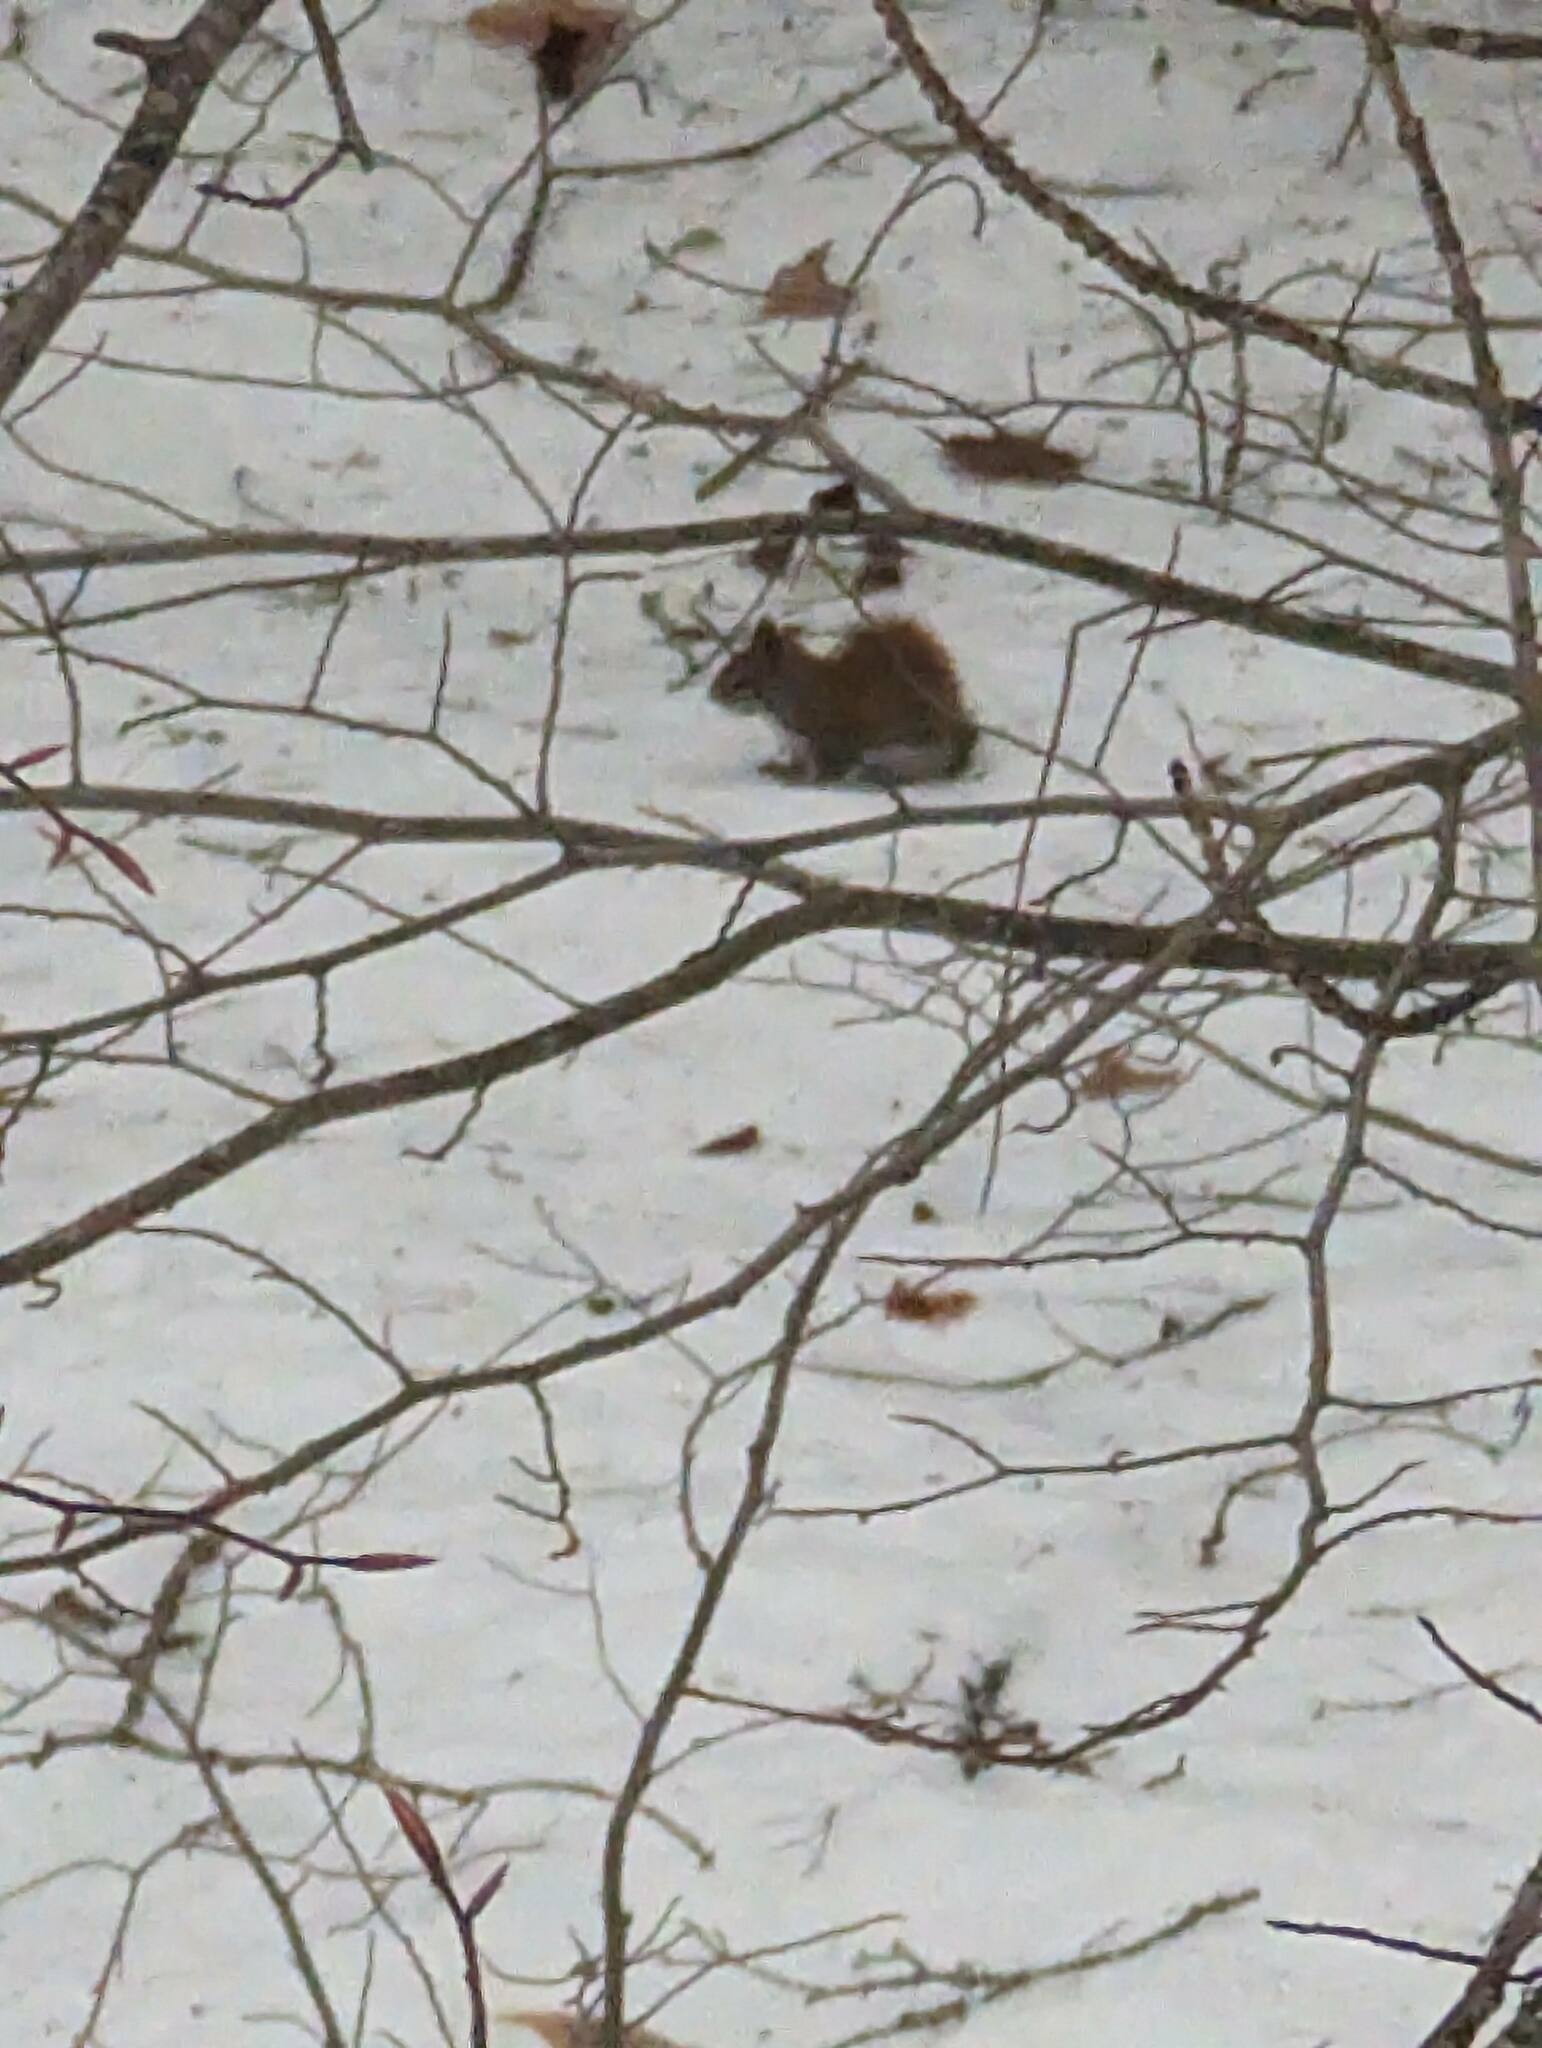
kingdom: Animalia
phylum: Chordata
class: Mammalia
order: Rodentia
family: Sciuridae
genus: Tamiasciurus
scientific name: Tamiasciurus hudsonicus
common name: Red squirrel
